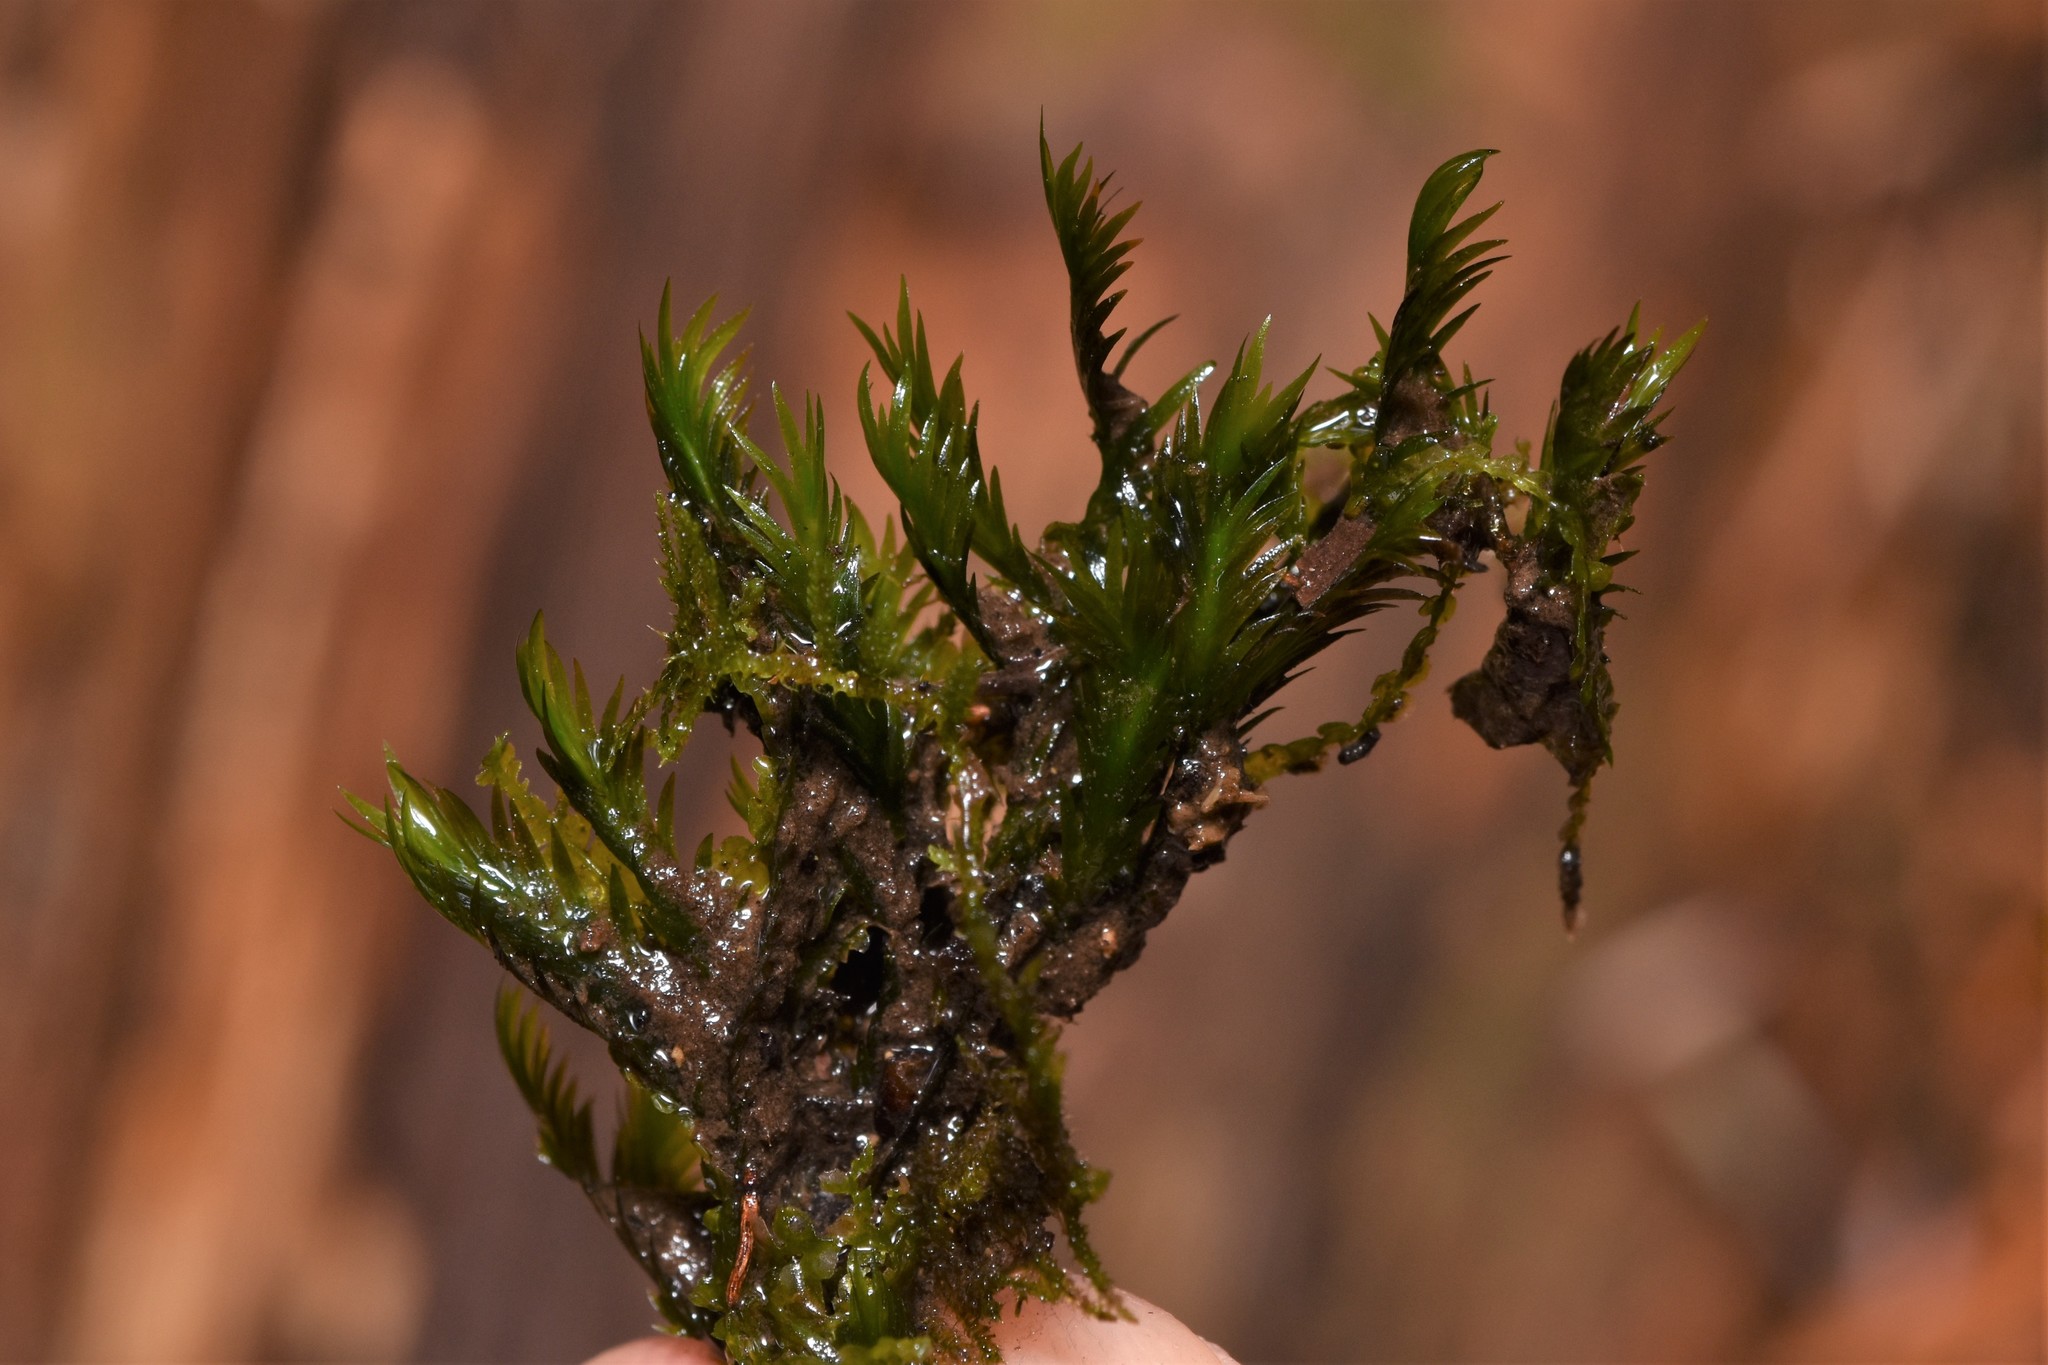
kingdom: Plantae
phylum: Bryophyta
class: Bryopsida
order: Dicranales
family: Fissidentaceae
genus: Fissidens
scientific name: Fissidens grandifrons
